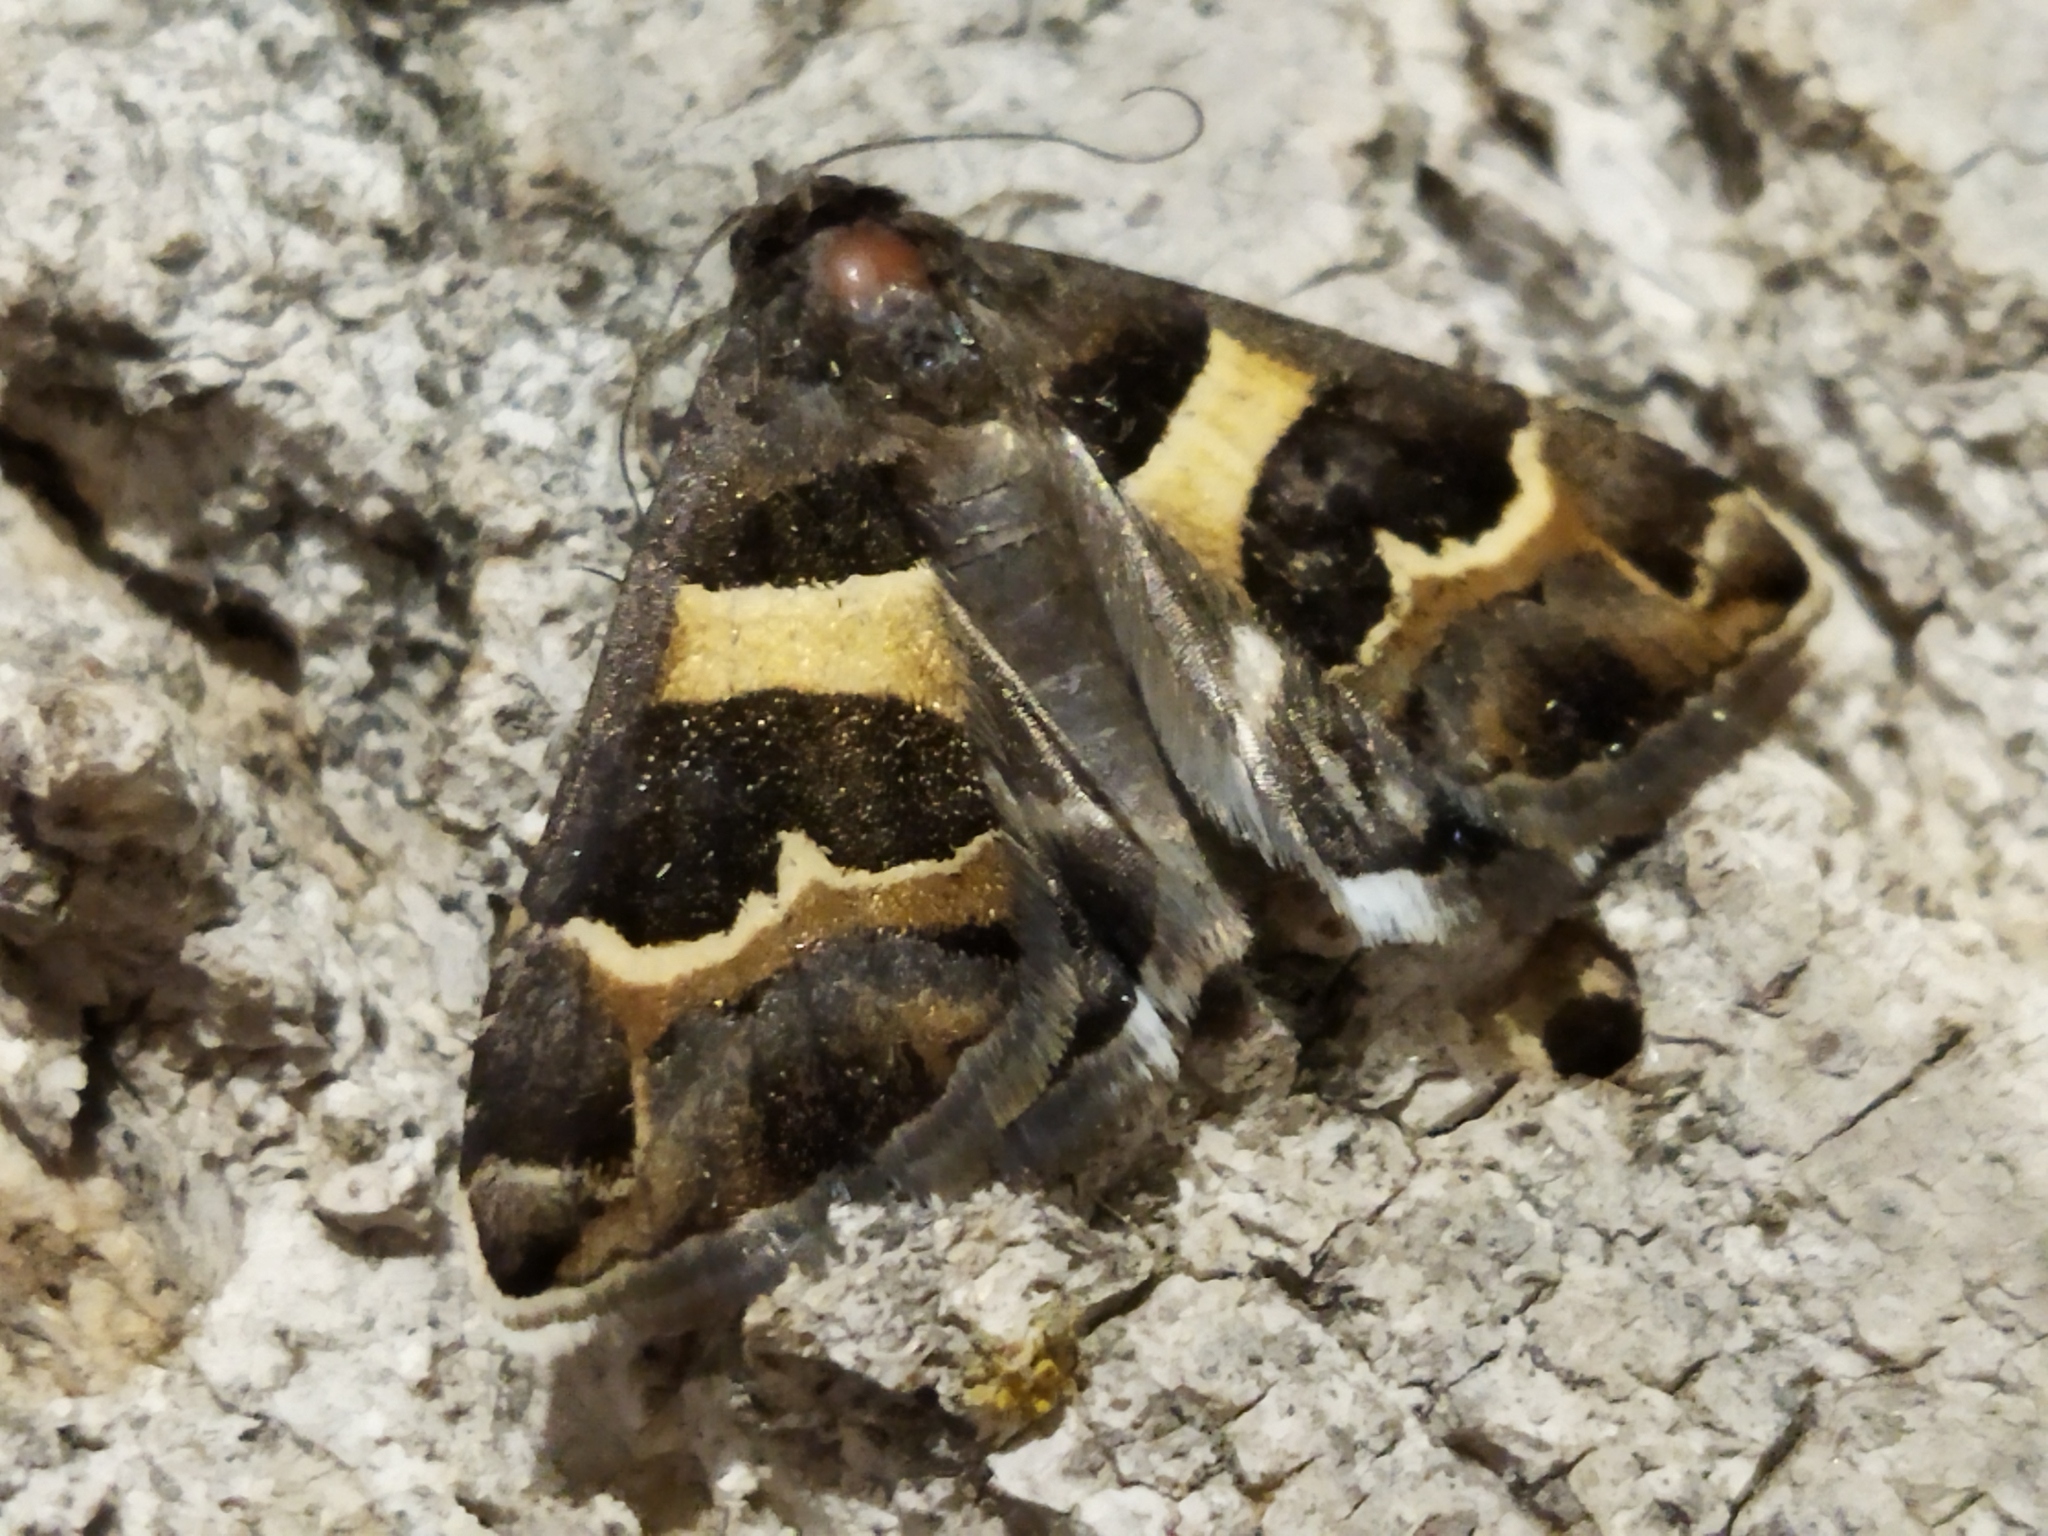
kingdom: Animalia
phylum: Arthropoda
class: Insecta
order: Lepidoptera
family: Erebidae
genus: Grammodes
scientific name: Grammodes stolida
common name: Geometrician
